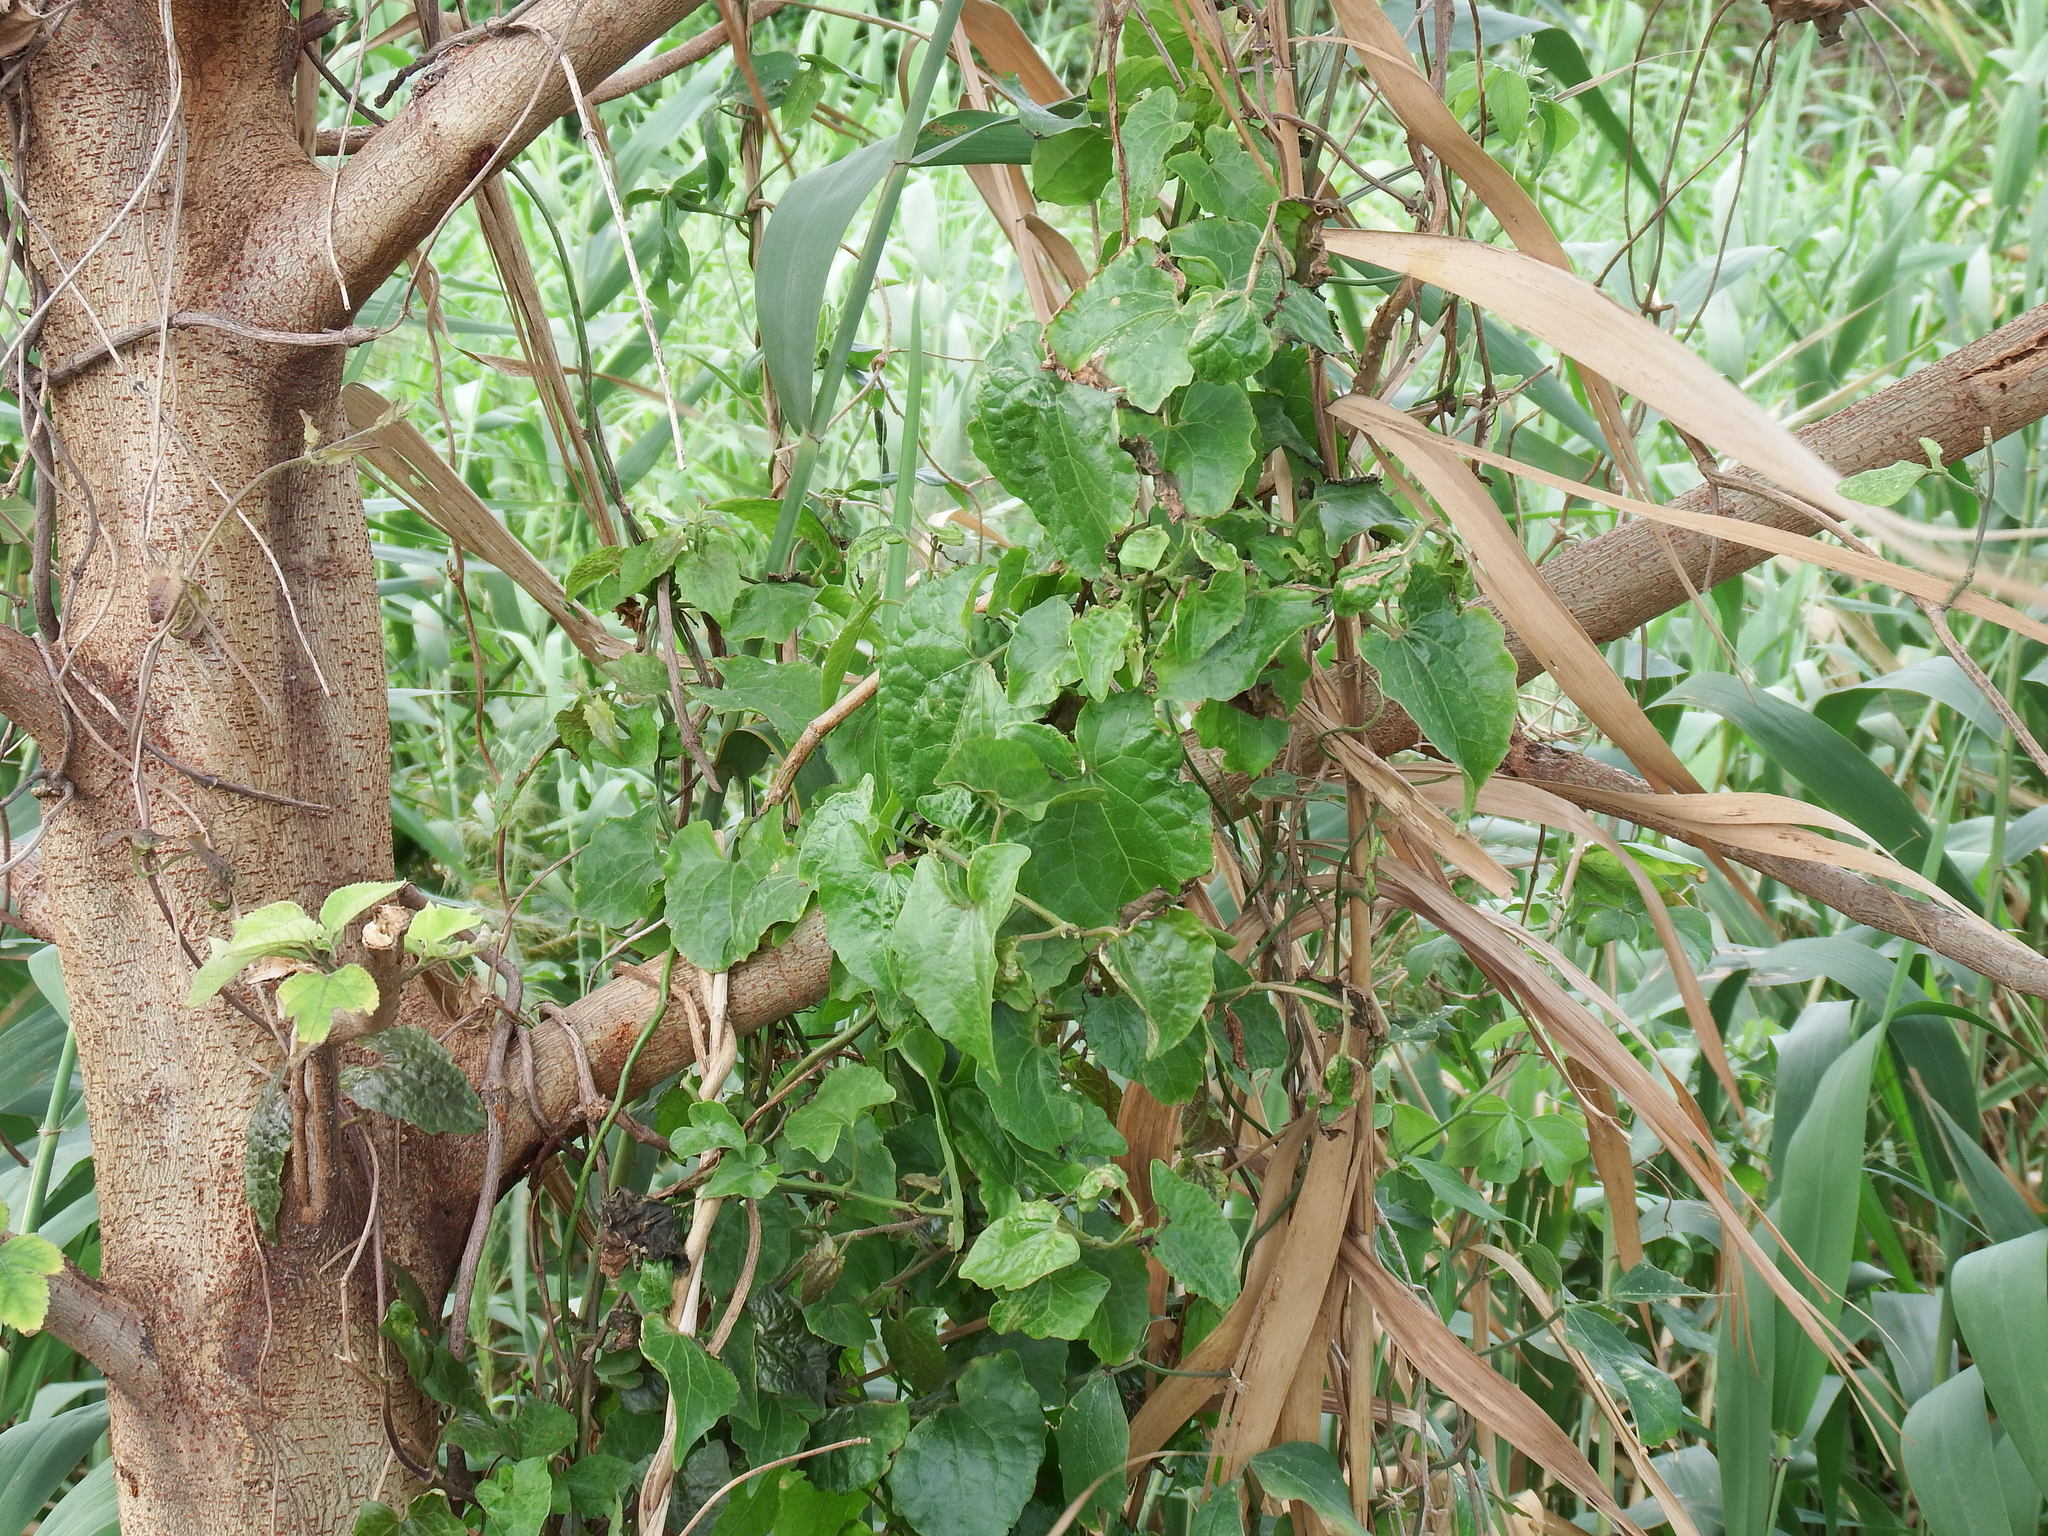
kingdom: Plantae
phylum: Tracheophyta
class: Magnoliopsida
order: Asterales
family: Asteraceae
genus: Mikania
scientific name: Mikania micrantha
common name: Mile-a-minute
